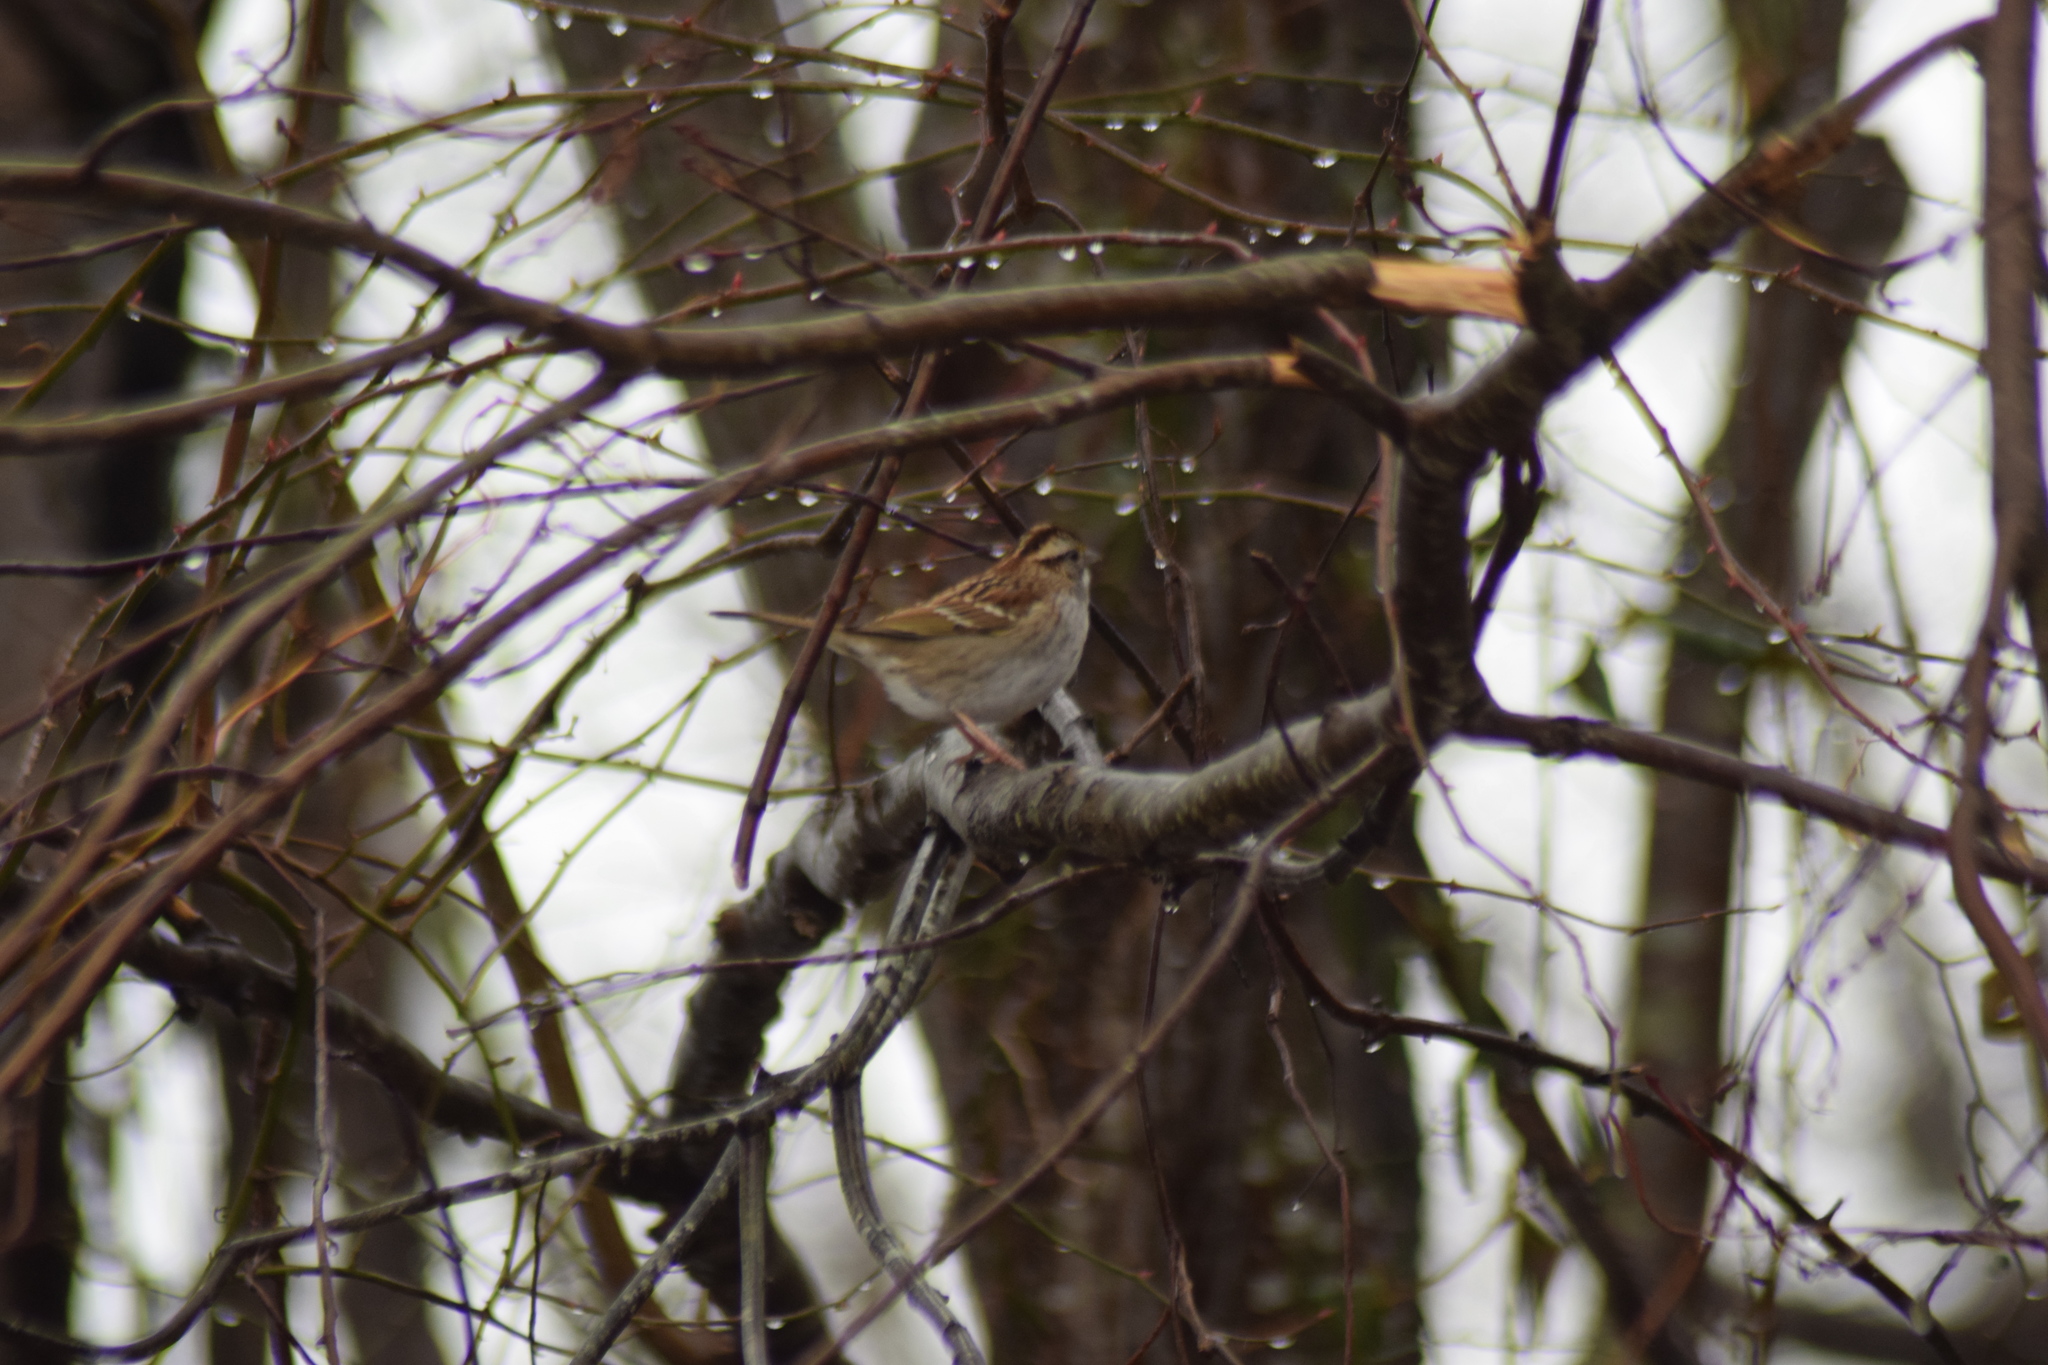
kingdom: Animalia
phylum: Chordata
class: Aves
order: Passeriformes
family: Passerellidae
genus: Zonotrichia
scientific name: Zonotrichia albicollis
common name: White-throated sparrow
